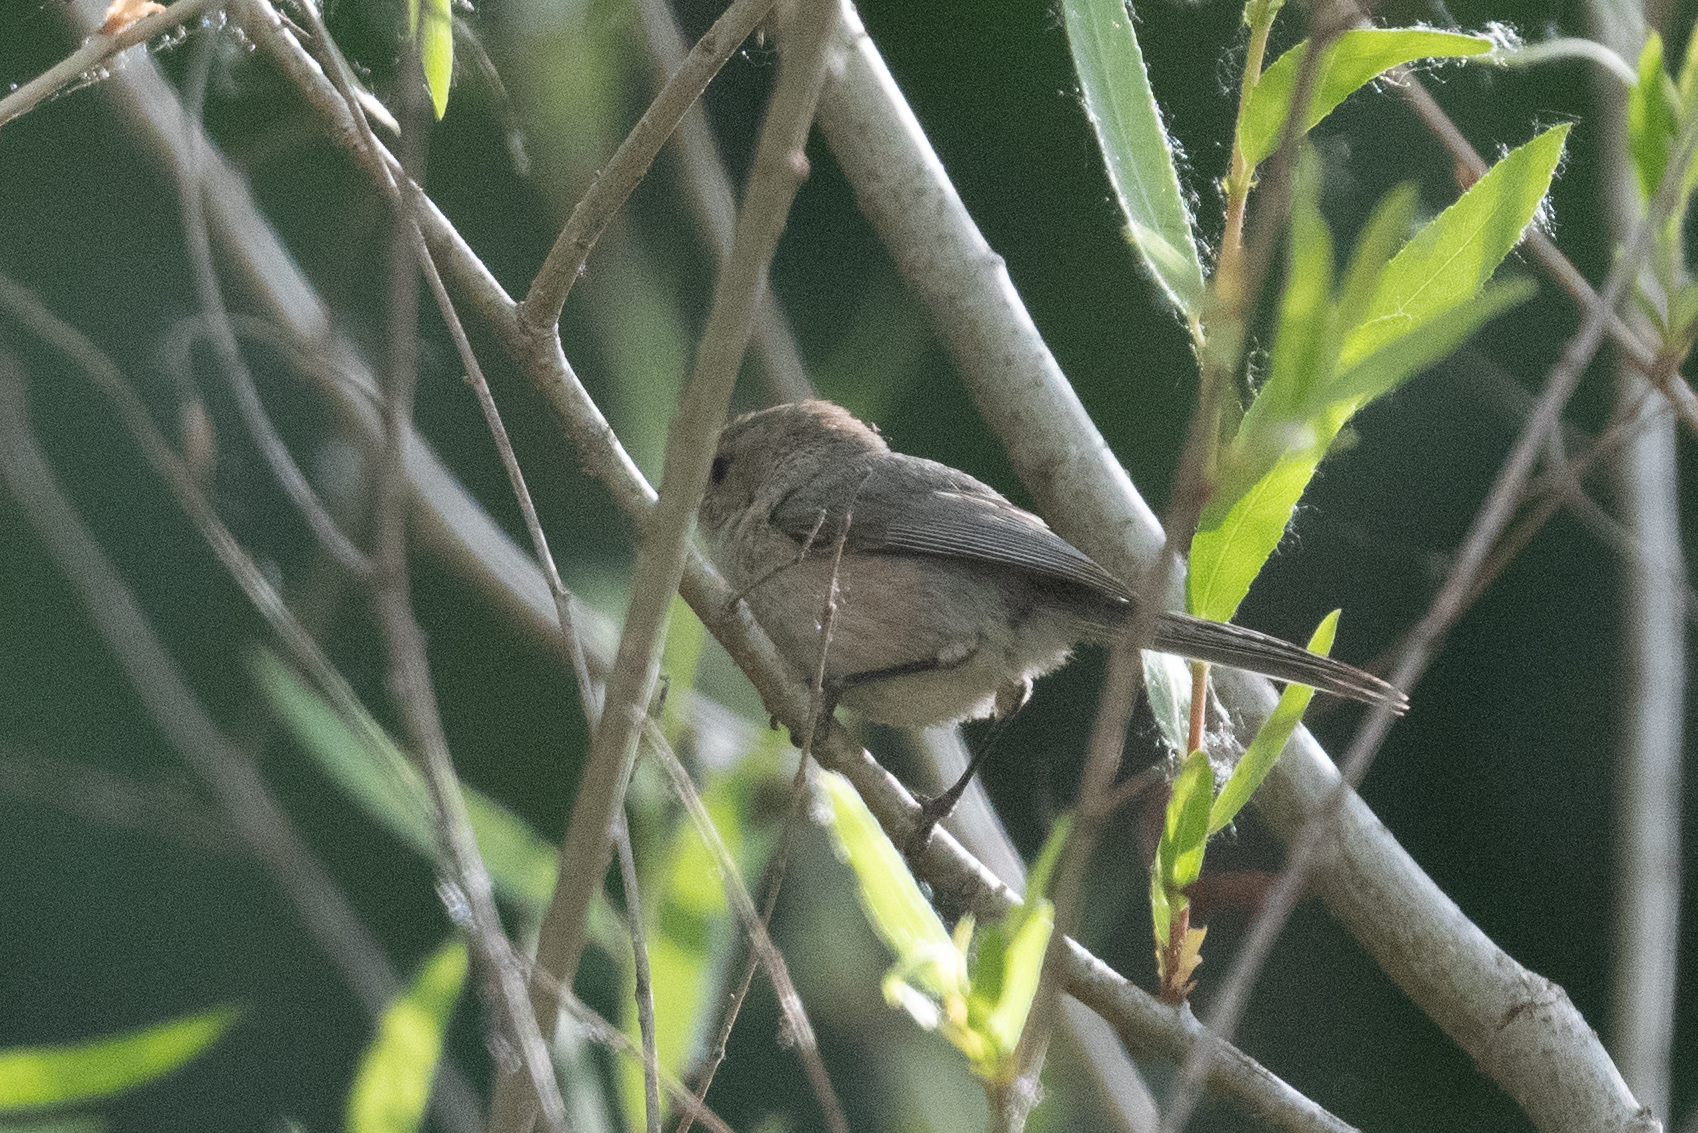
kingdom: Animalia
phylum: Chordata
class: Aves
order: Passeriformes
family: Aegithalidae
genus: Psaltriparus
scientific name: Psaltriparus minimus
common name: American bushtit
